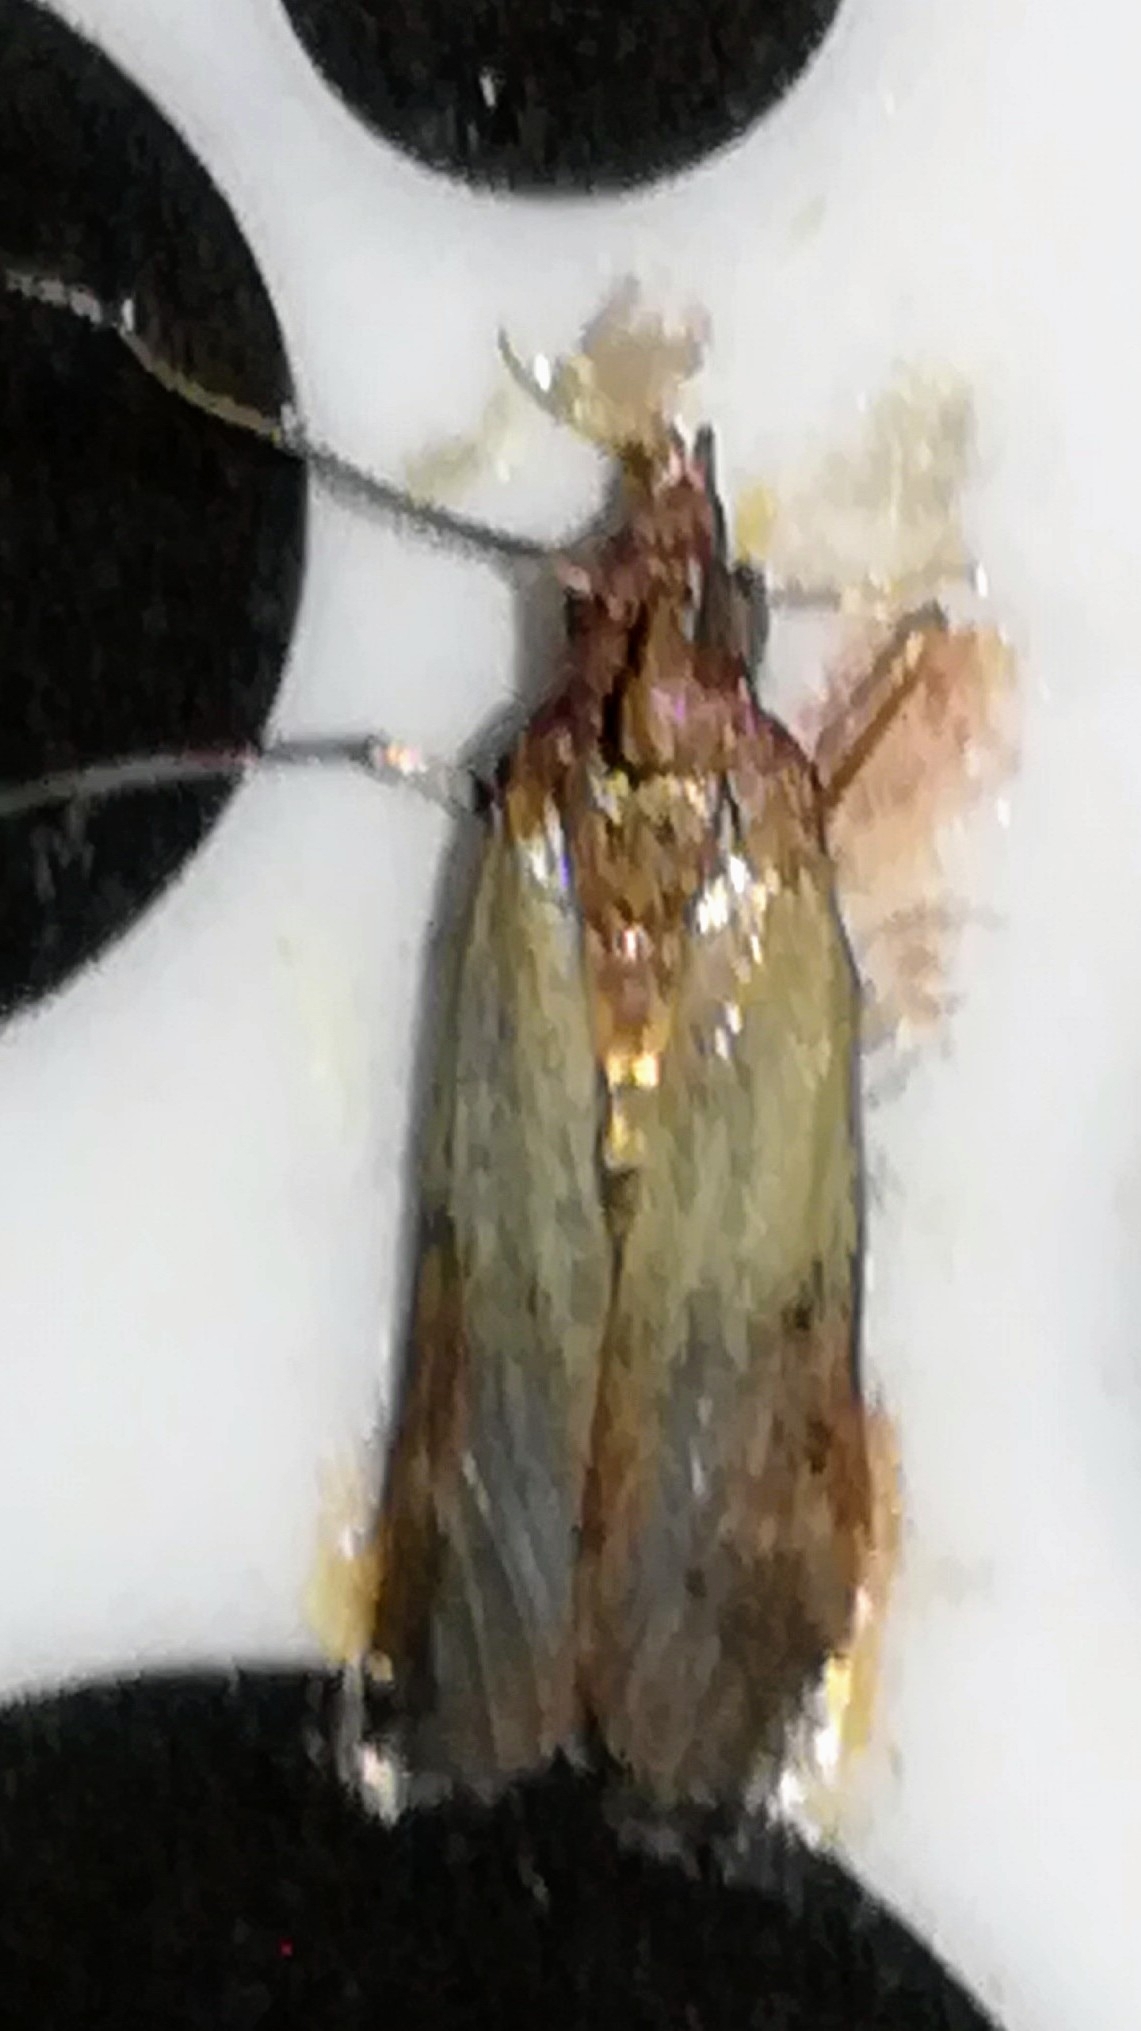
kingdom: Animalia
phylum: Arthropoda
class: Insecta
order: Lepidoptera
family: Pyralidae
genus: Plodia
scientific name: Plodia interpunctella
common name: Indian meal moth
